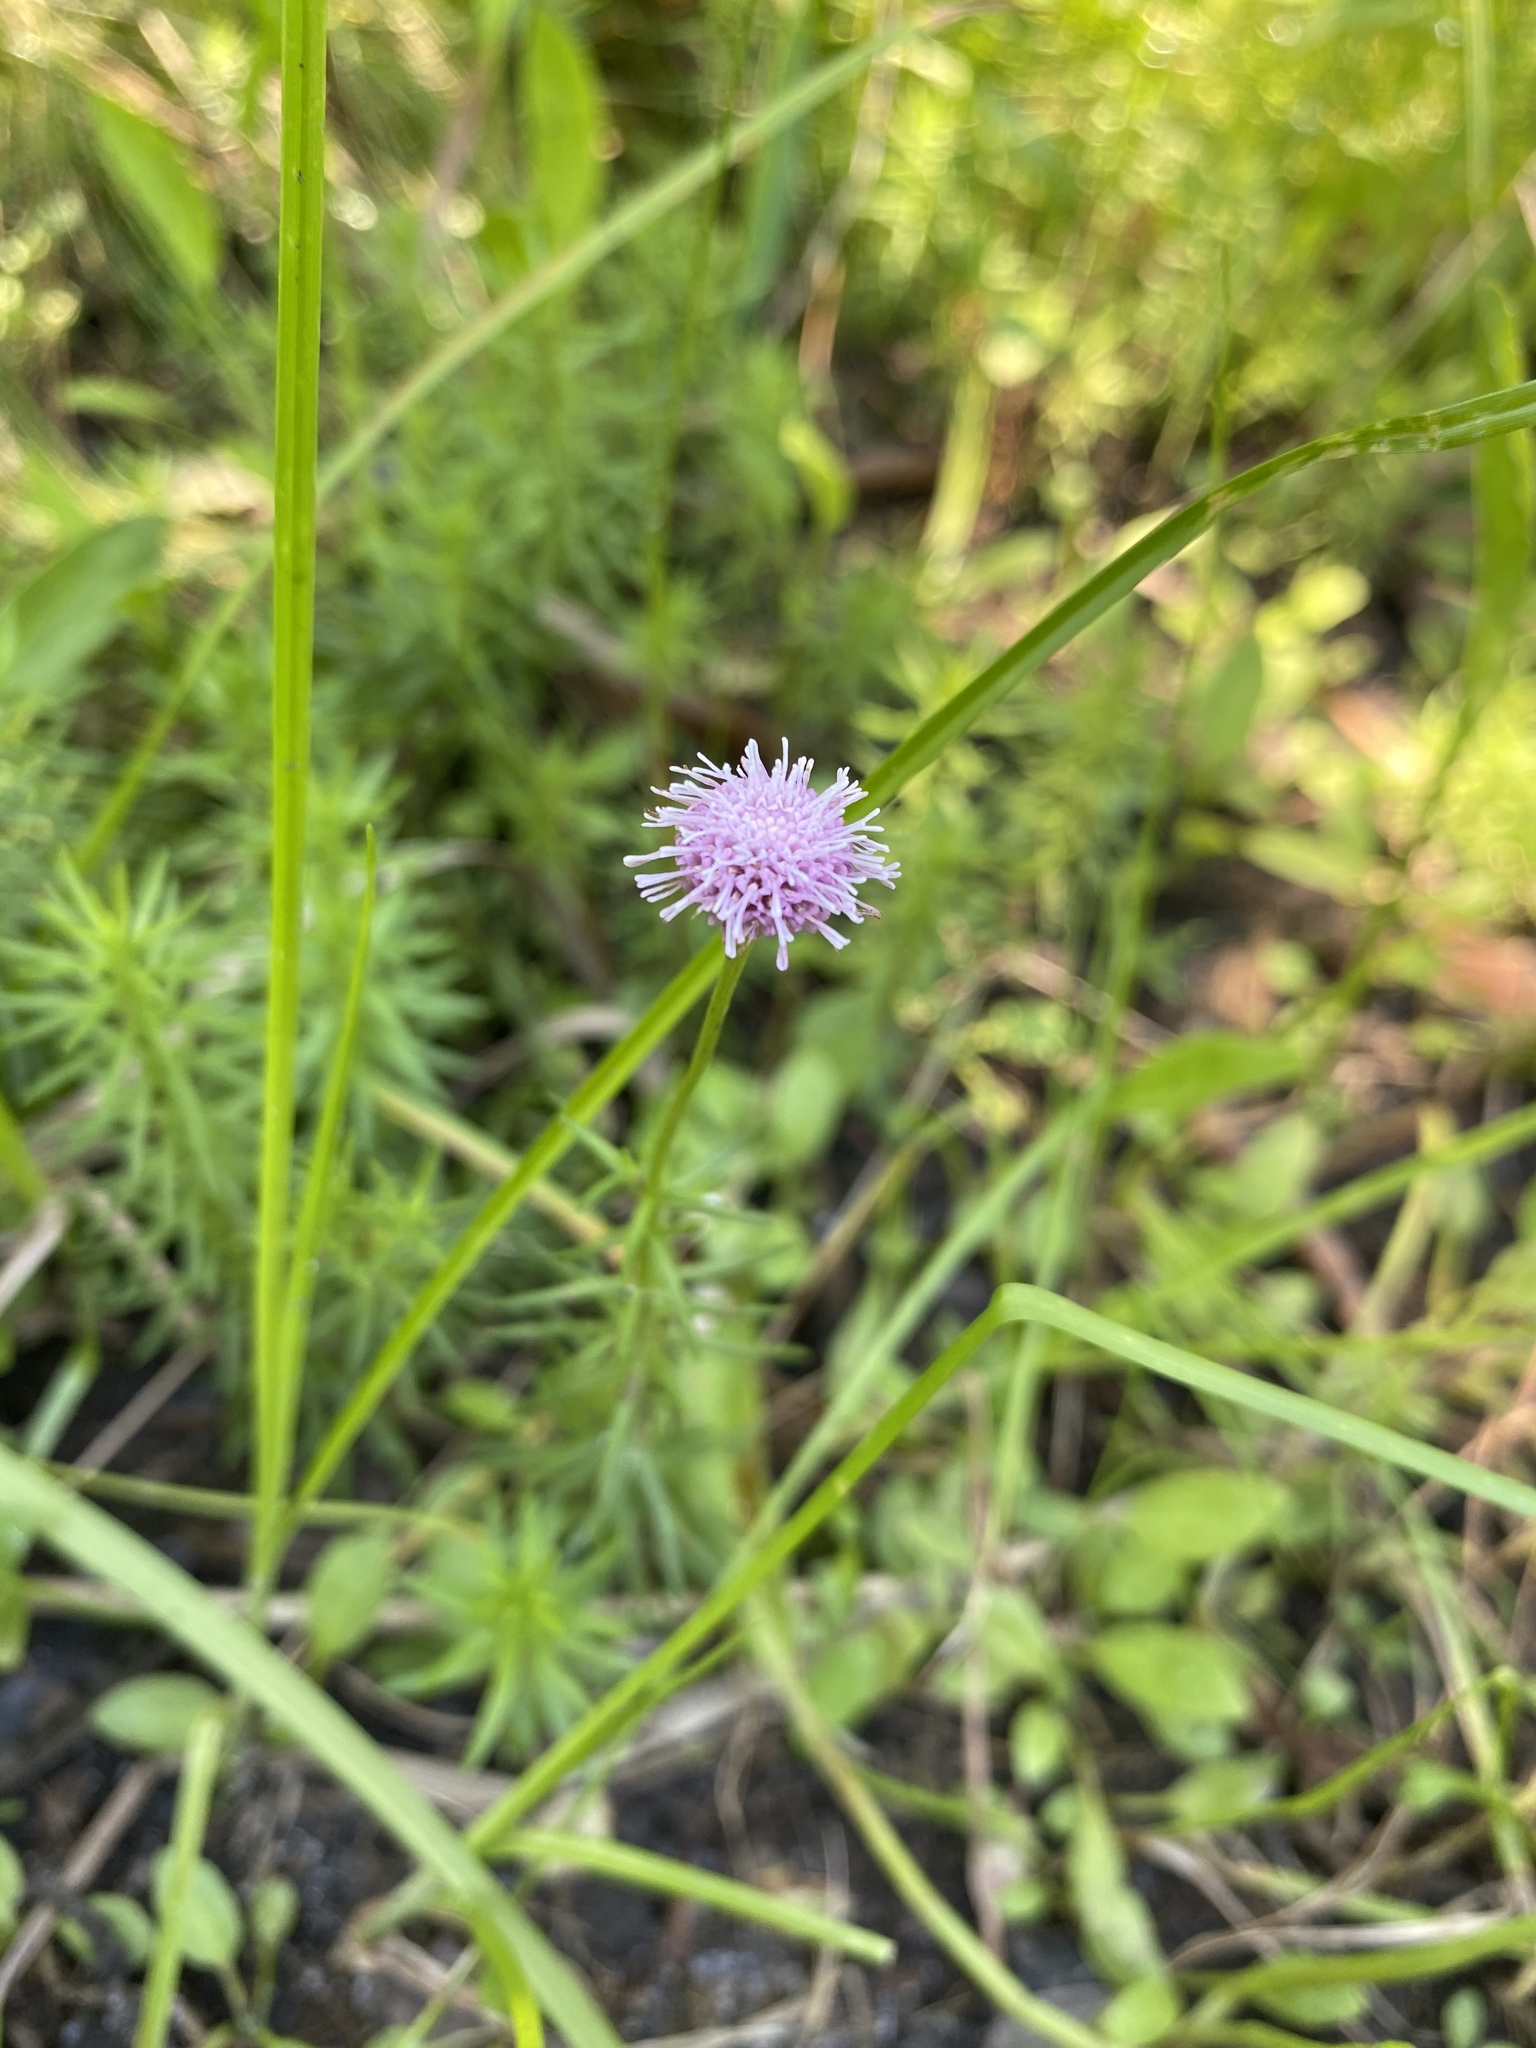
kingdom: Plantae
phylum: Tracheophyta
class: Magnoliopsida
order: Asterales
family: Asteraceae
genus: Sclerolepis
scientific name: Sclerolepis uniflora
